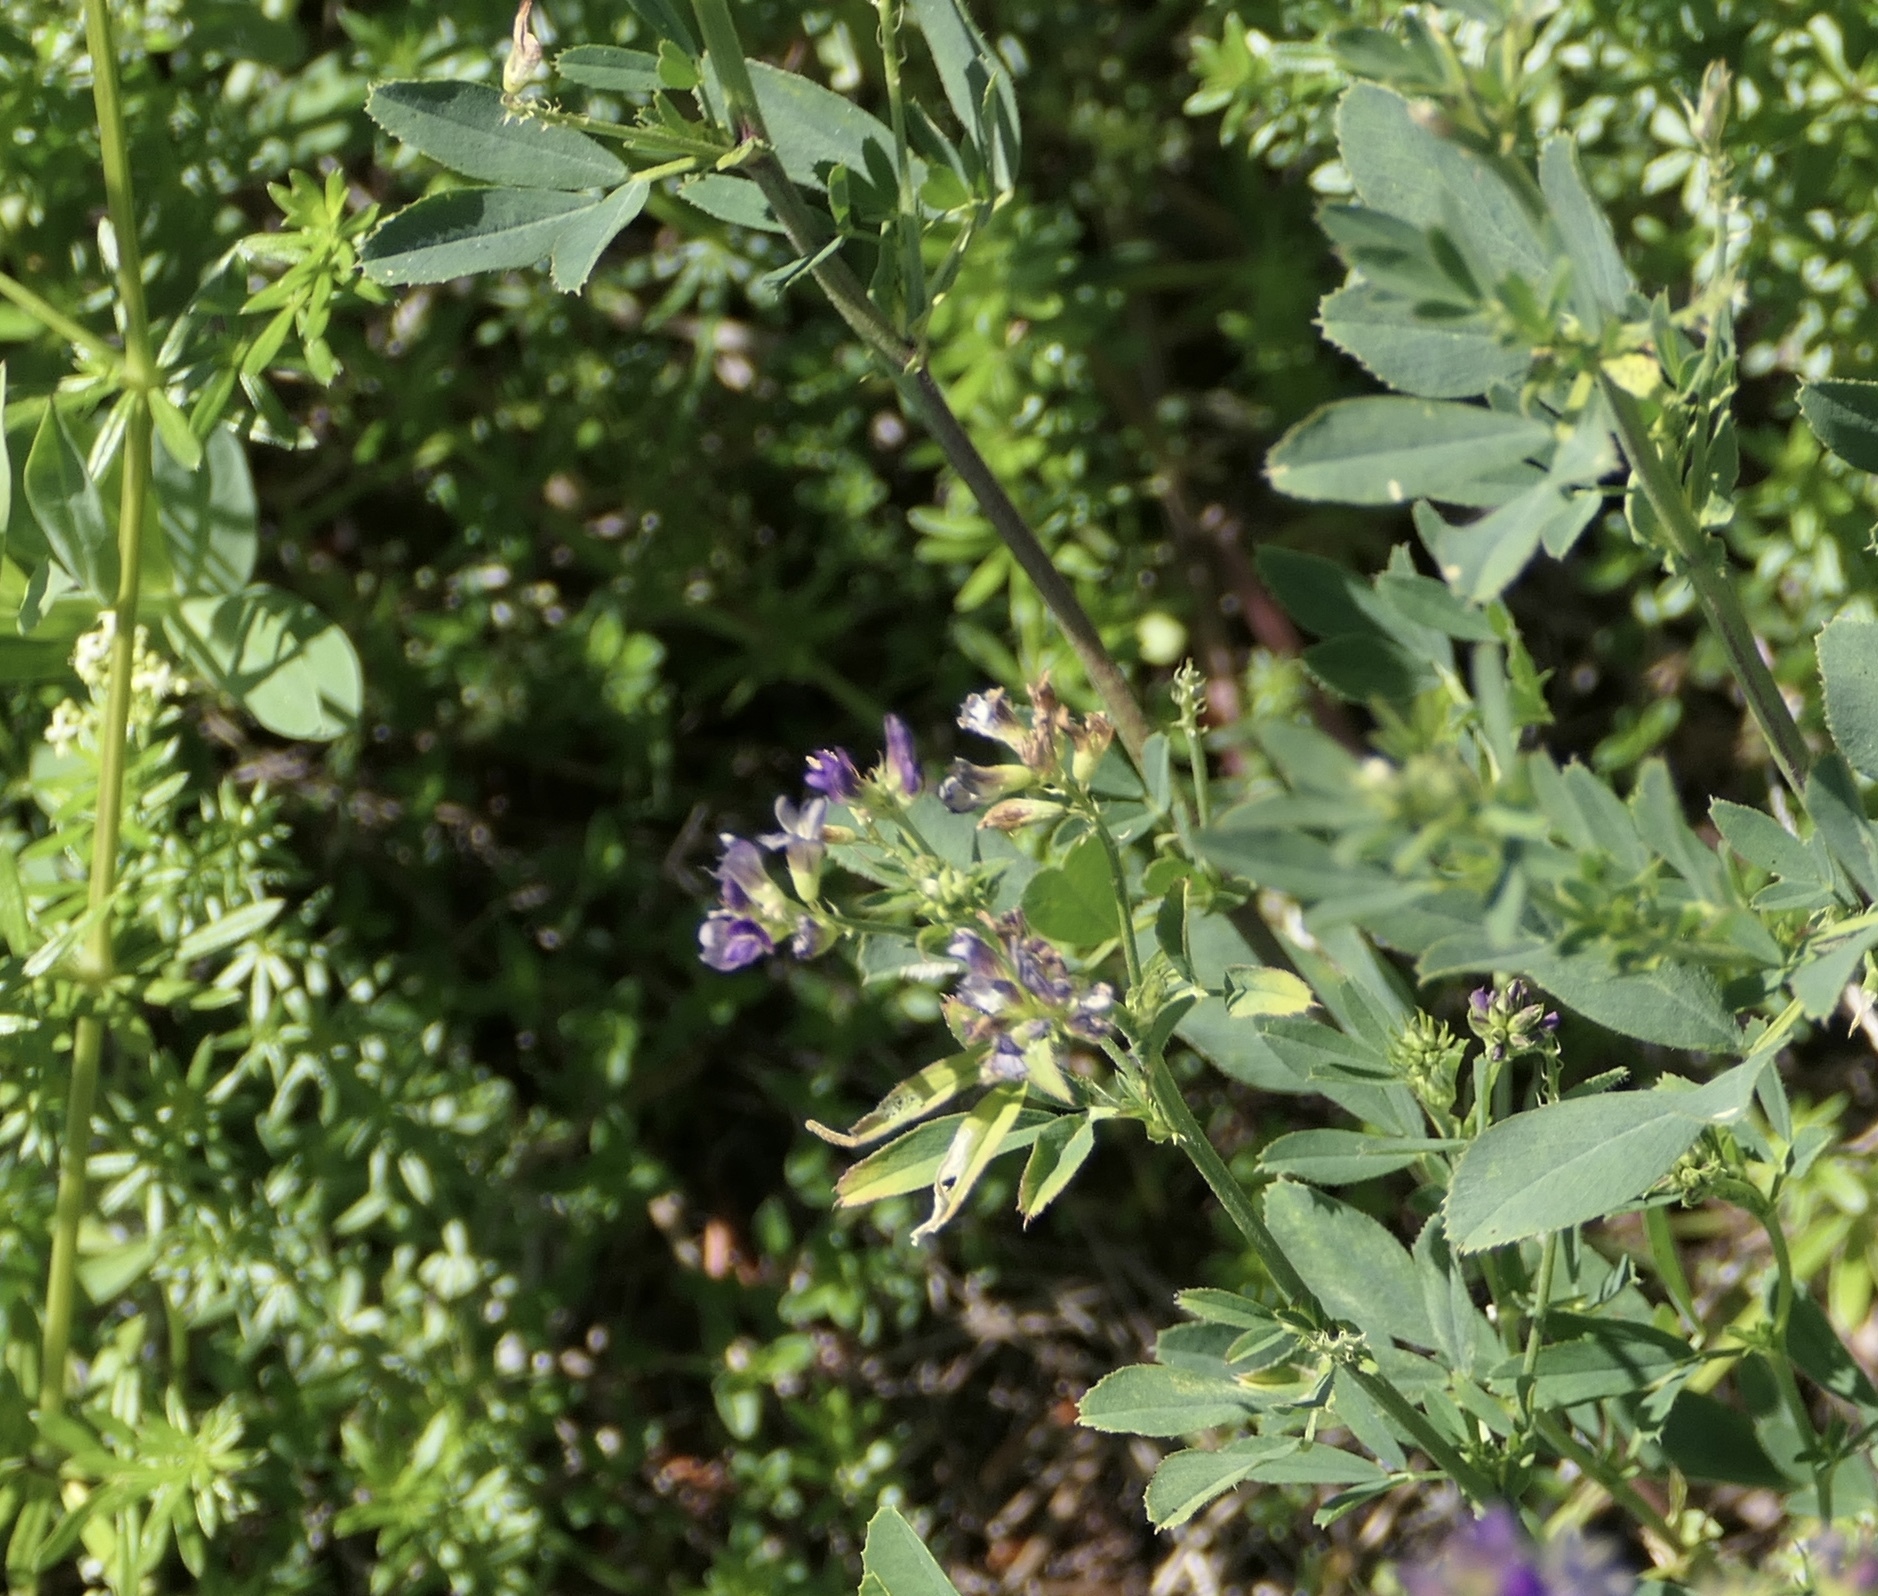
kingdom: Plantae
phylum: Tracheophyta
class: Magnoliopsida
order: Fabales
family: Fabaceae
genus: Medicago
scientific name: Medicago sativa
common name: Alfalfa
